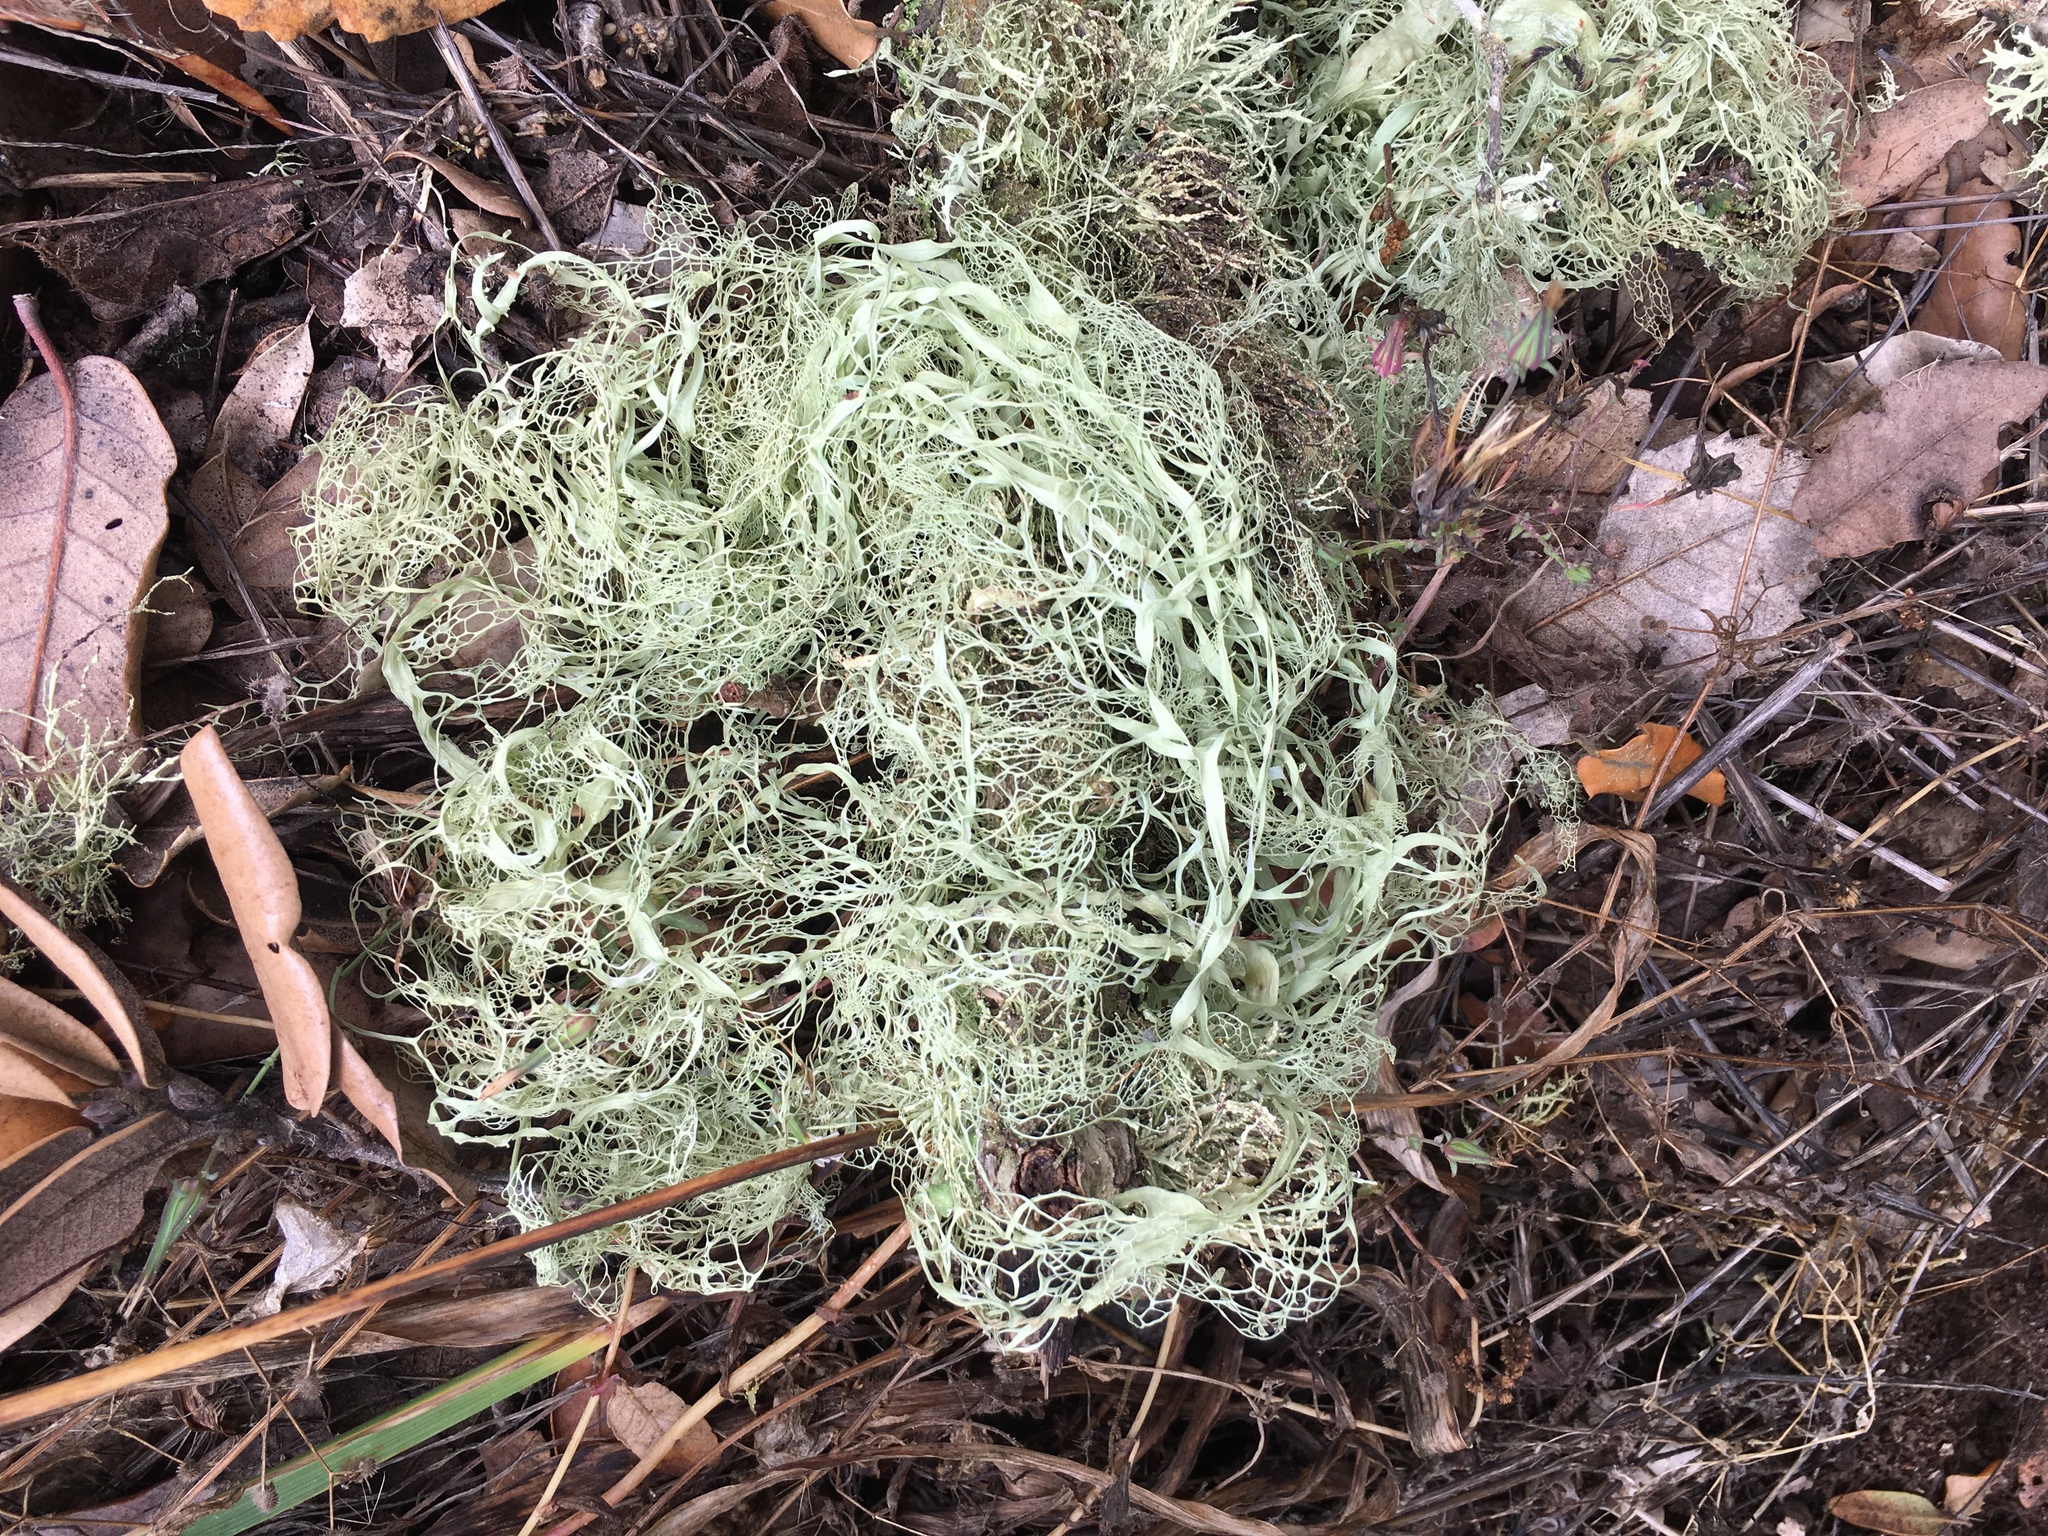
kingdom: Fungi
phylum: Ascomycota
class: Lecanoromycetes
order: Lecanorales
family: Ramalinaceae
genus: Ramalina
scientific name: Ramalina menziesii
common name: Lace lichen
